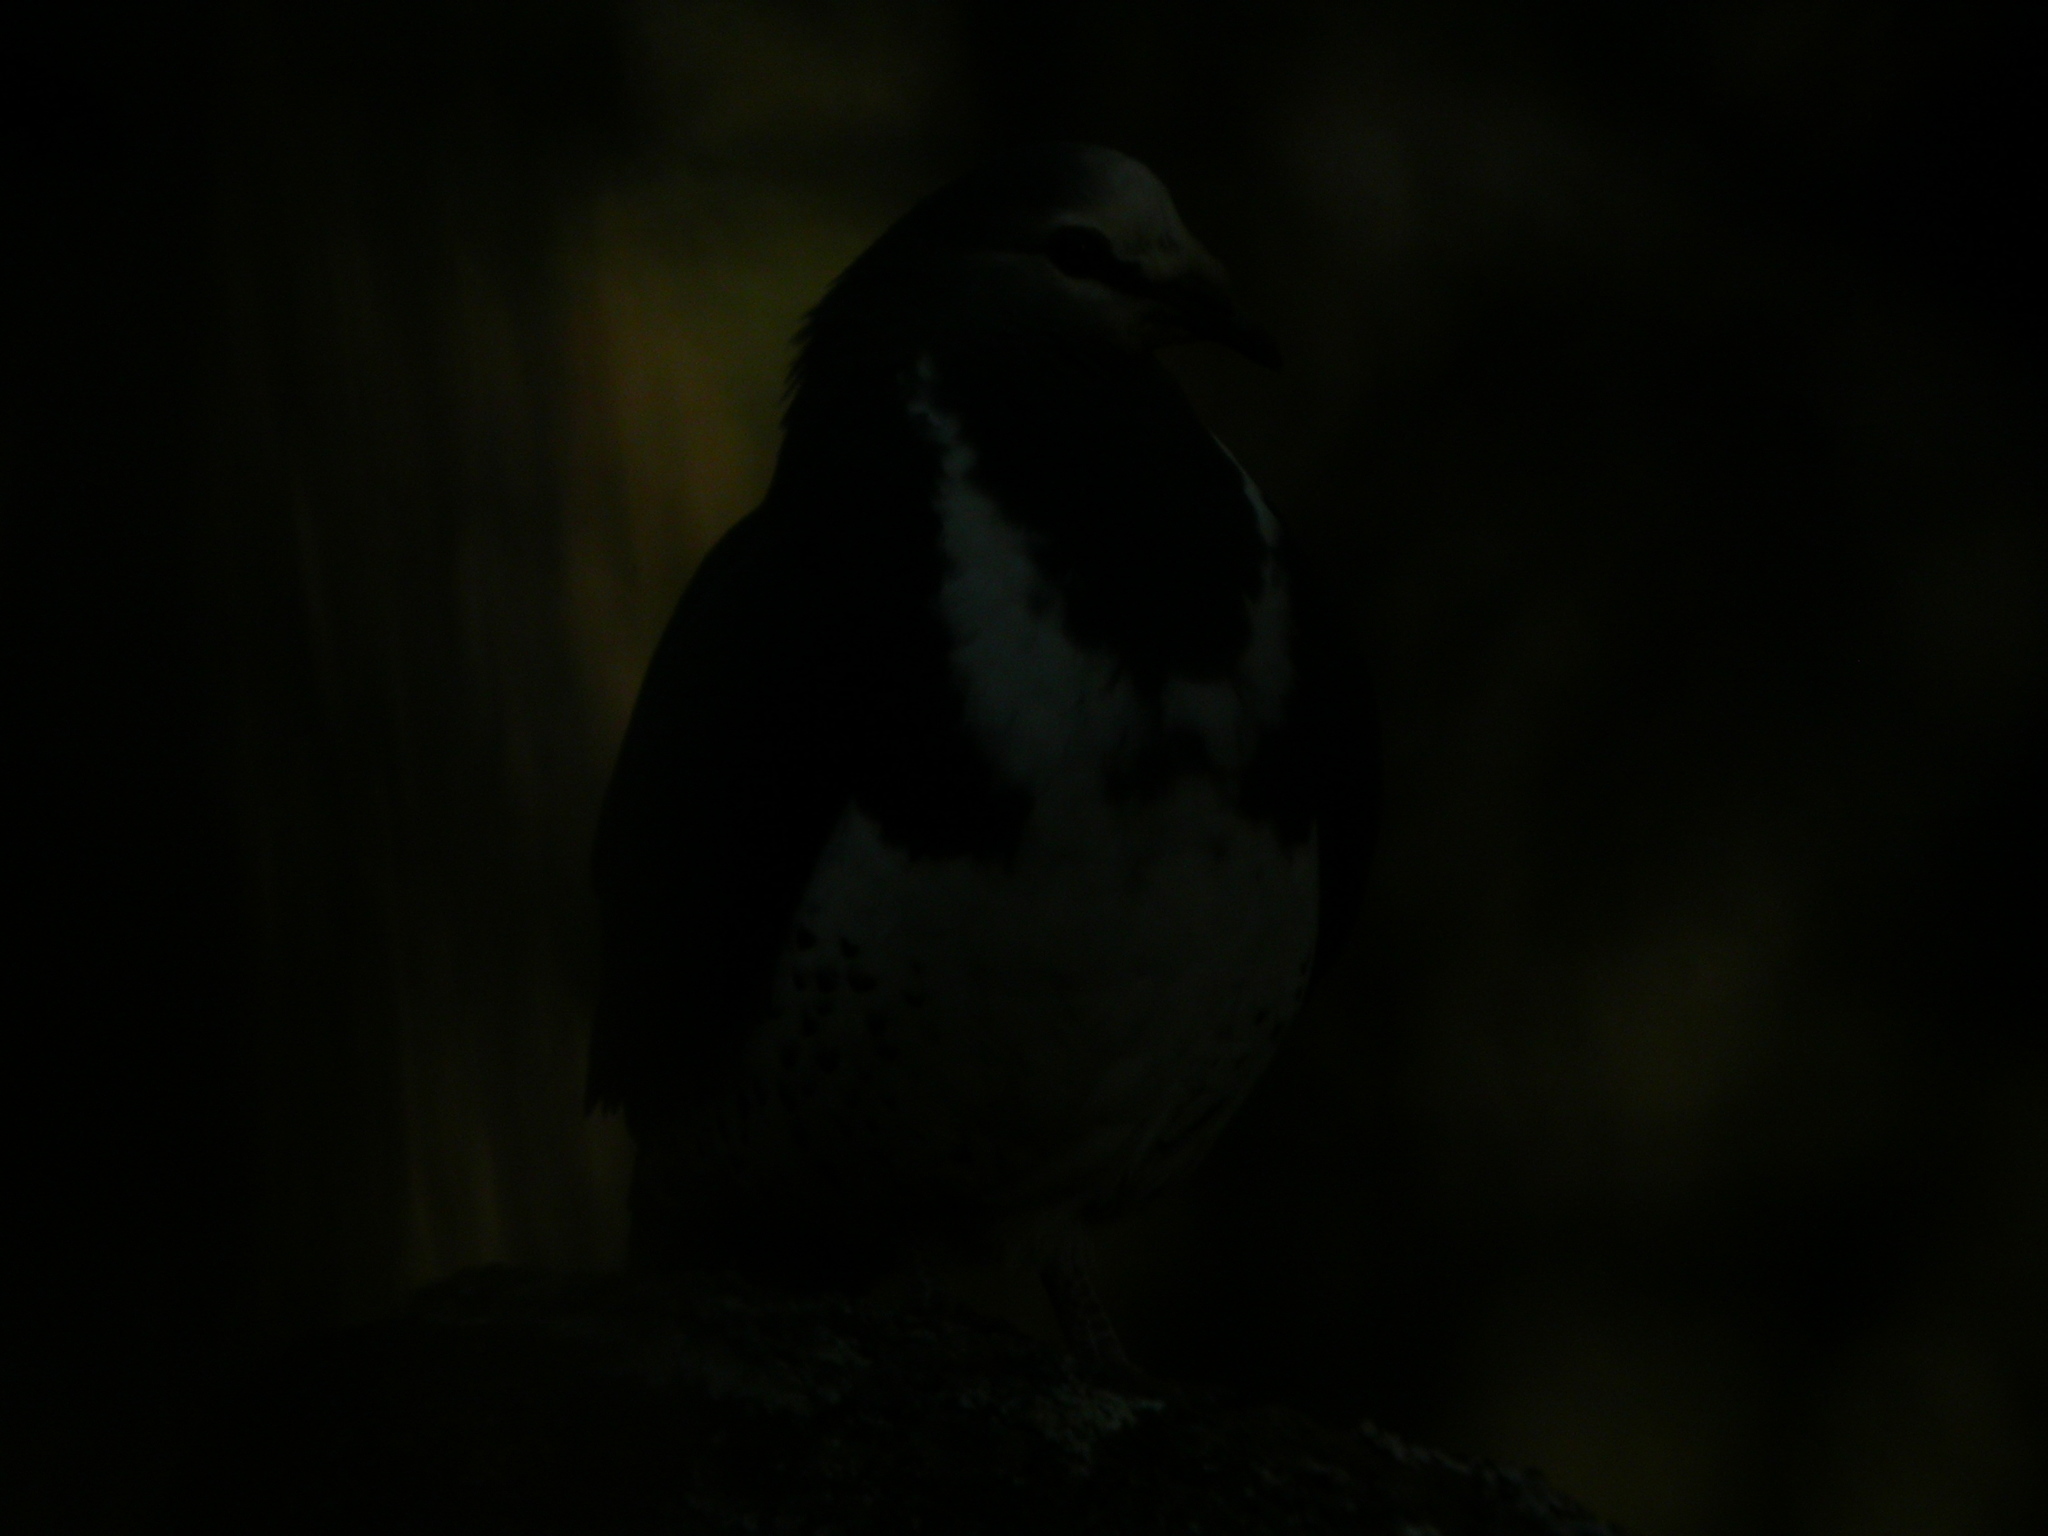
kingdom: Animalia
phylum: Chordata
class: Aves
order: Columbiformes
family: Columbidae
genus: Leucosarcia
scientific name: Leucosarcia melanoleuca
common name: Wonga pigeon
